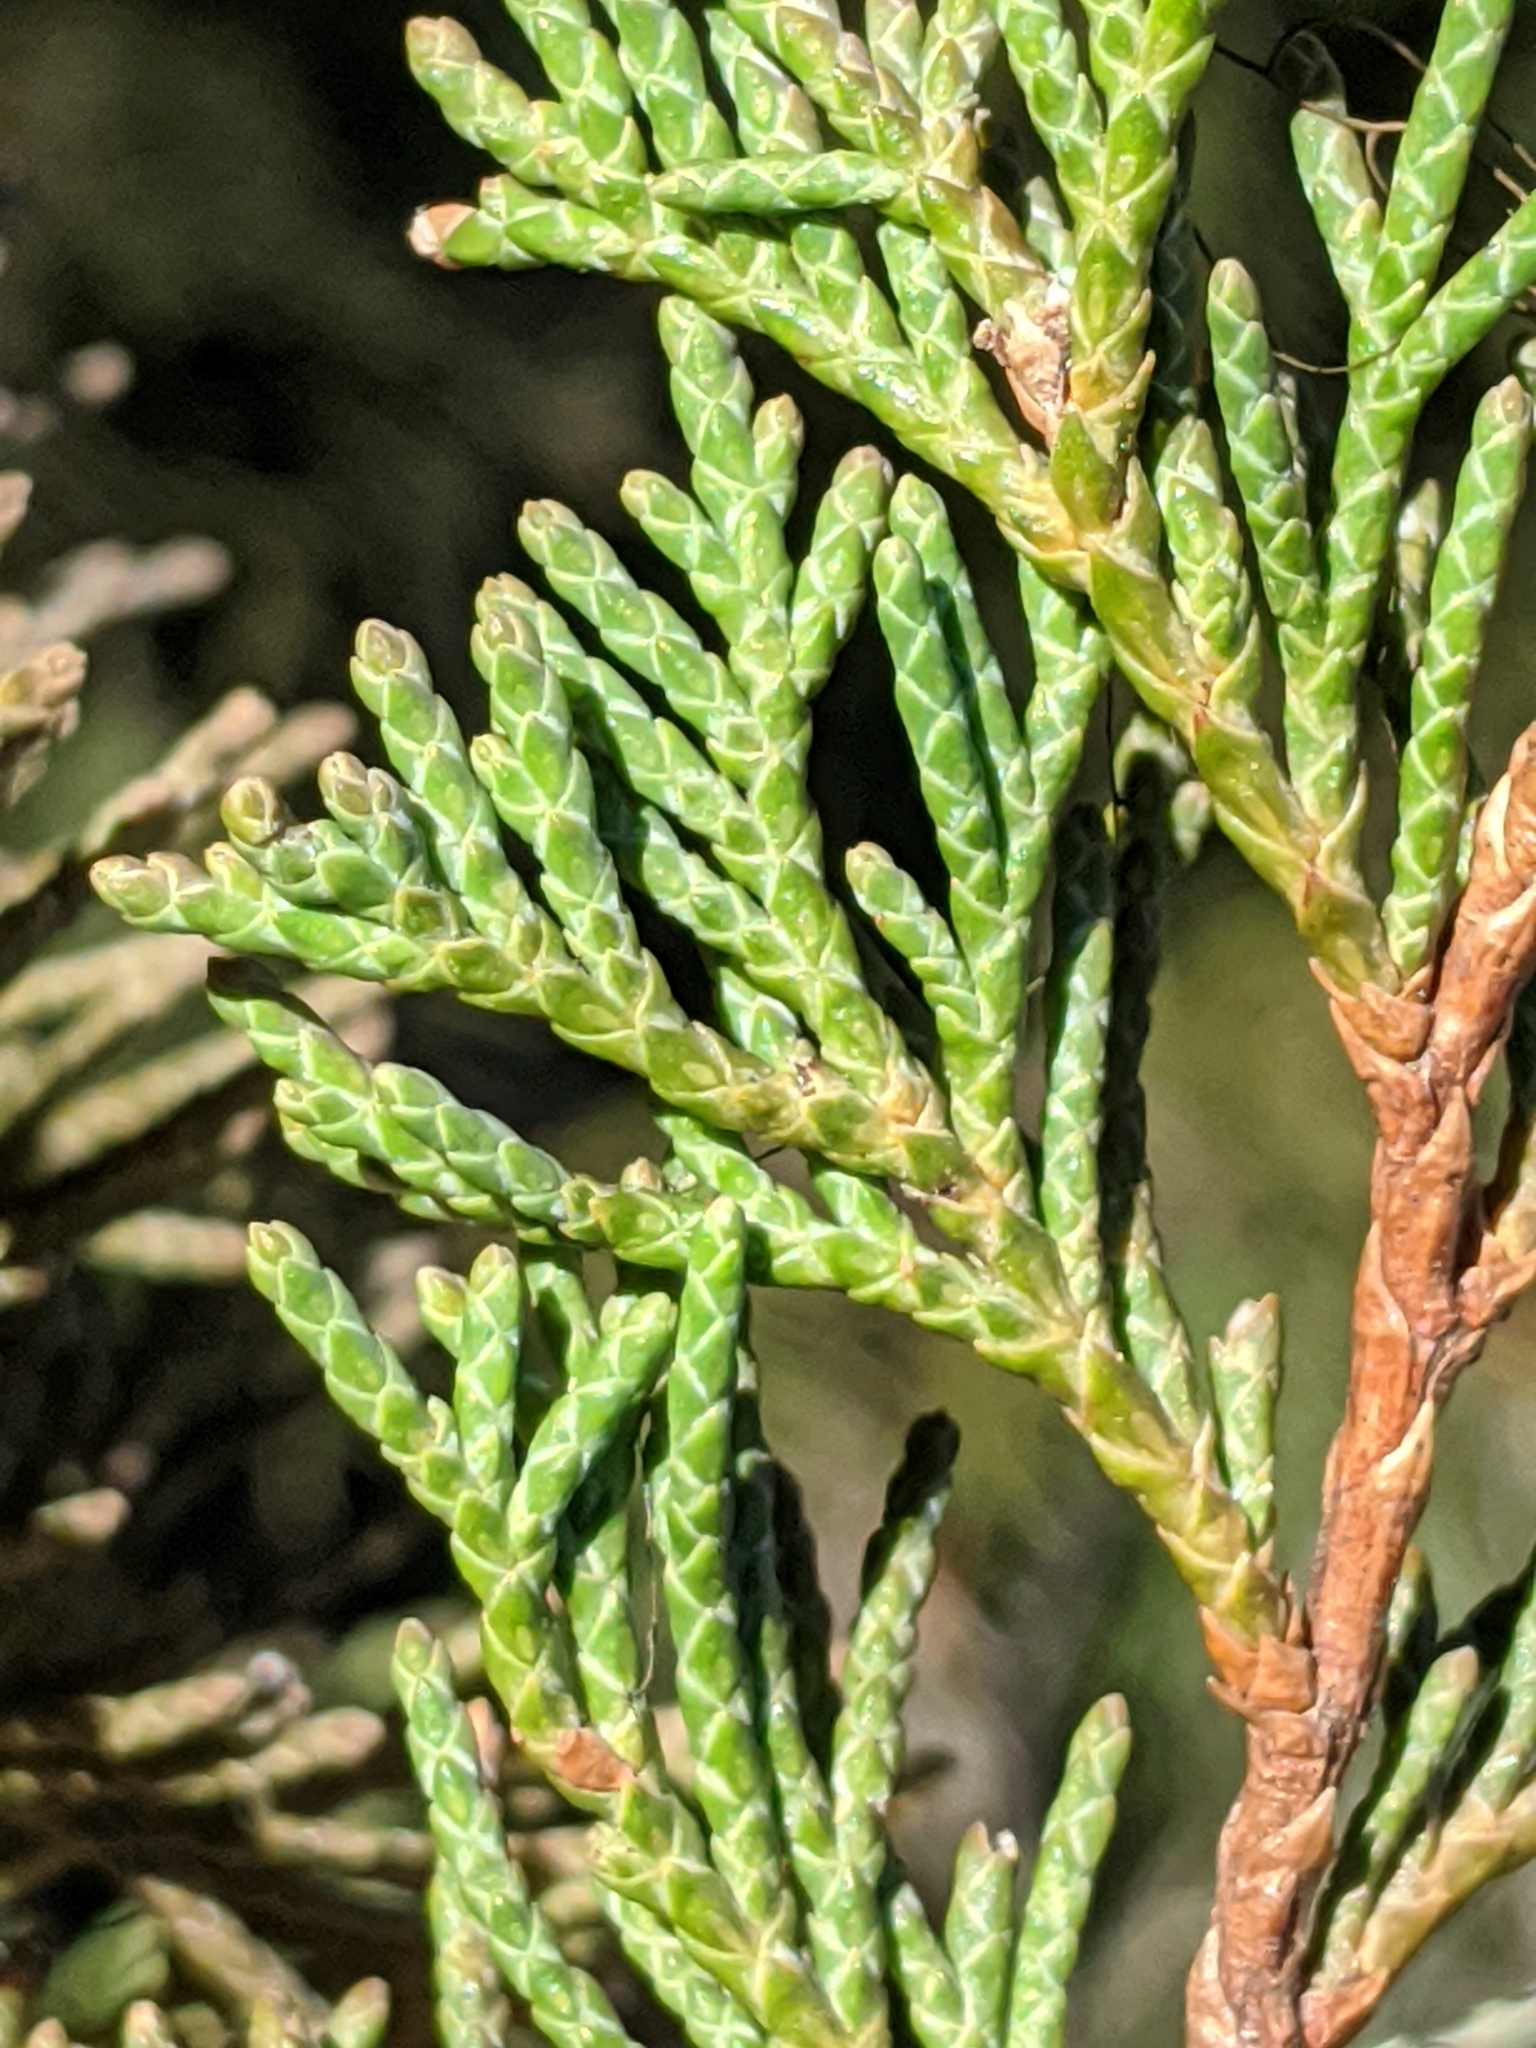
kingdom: Plantae
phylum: Tracheophyta
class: Pinopsida
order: Pinales
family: Cupressaceae
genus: Juniperus
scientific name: Juniperus scopulorum
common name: Rocky mountain juniper
